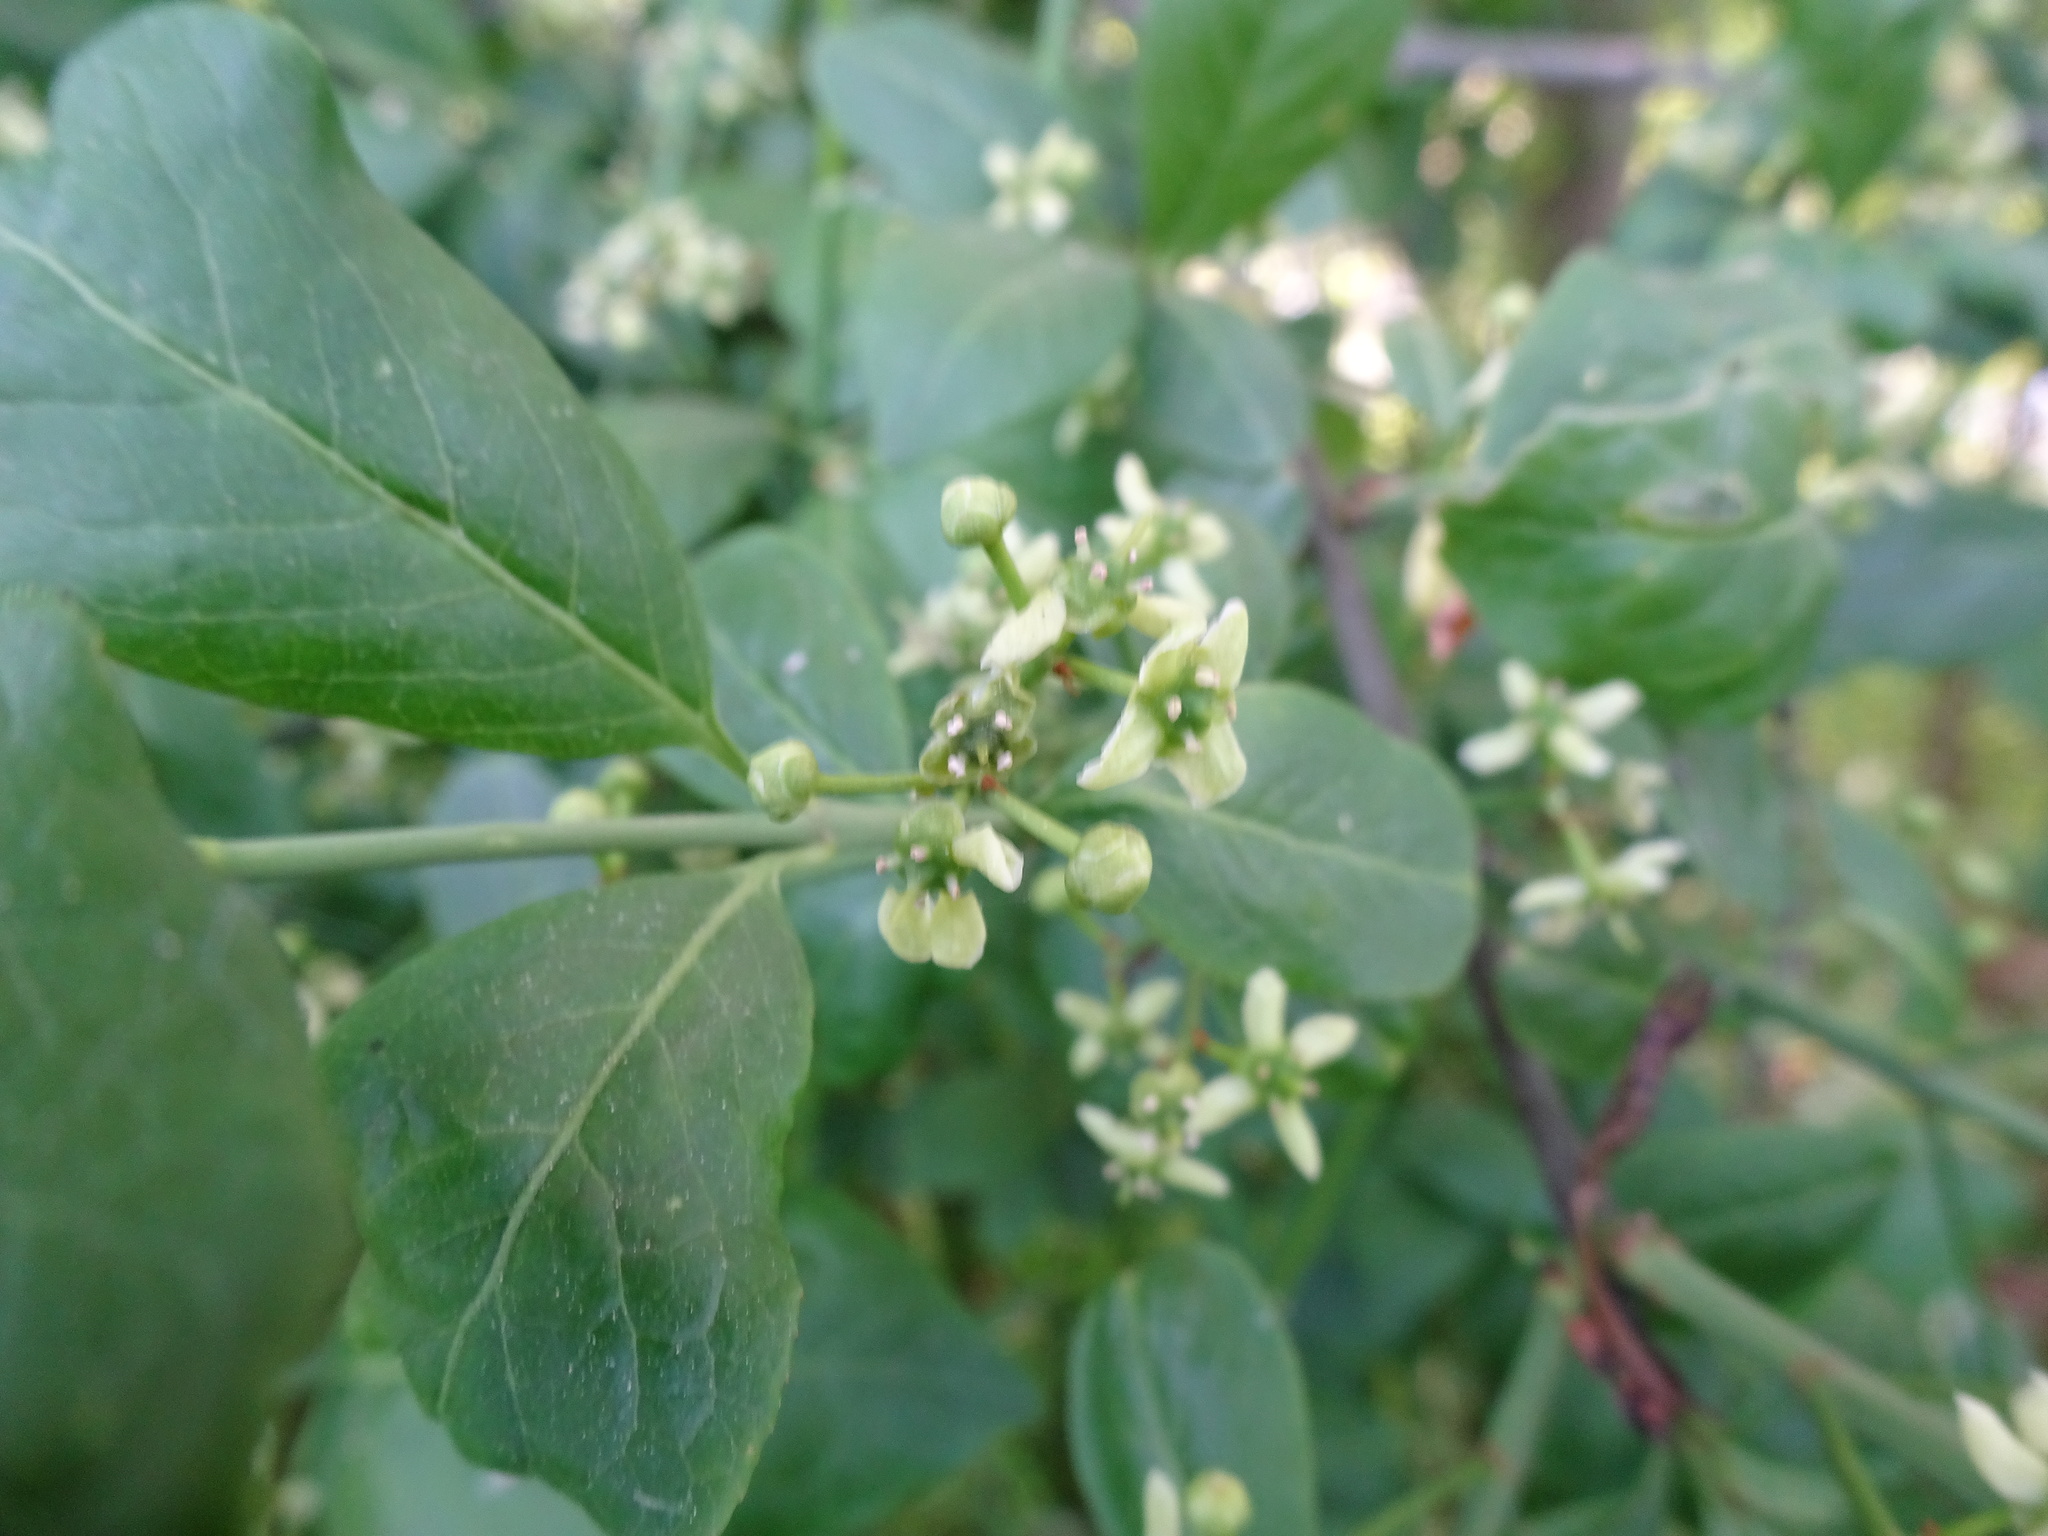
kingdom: Plantae
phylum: Tracheophyta
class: Magnoliopsida
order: Celastrales
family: Celastraceae
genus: Euonymus
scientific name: Euonymus europaeus
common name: Spindle
